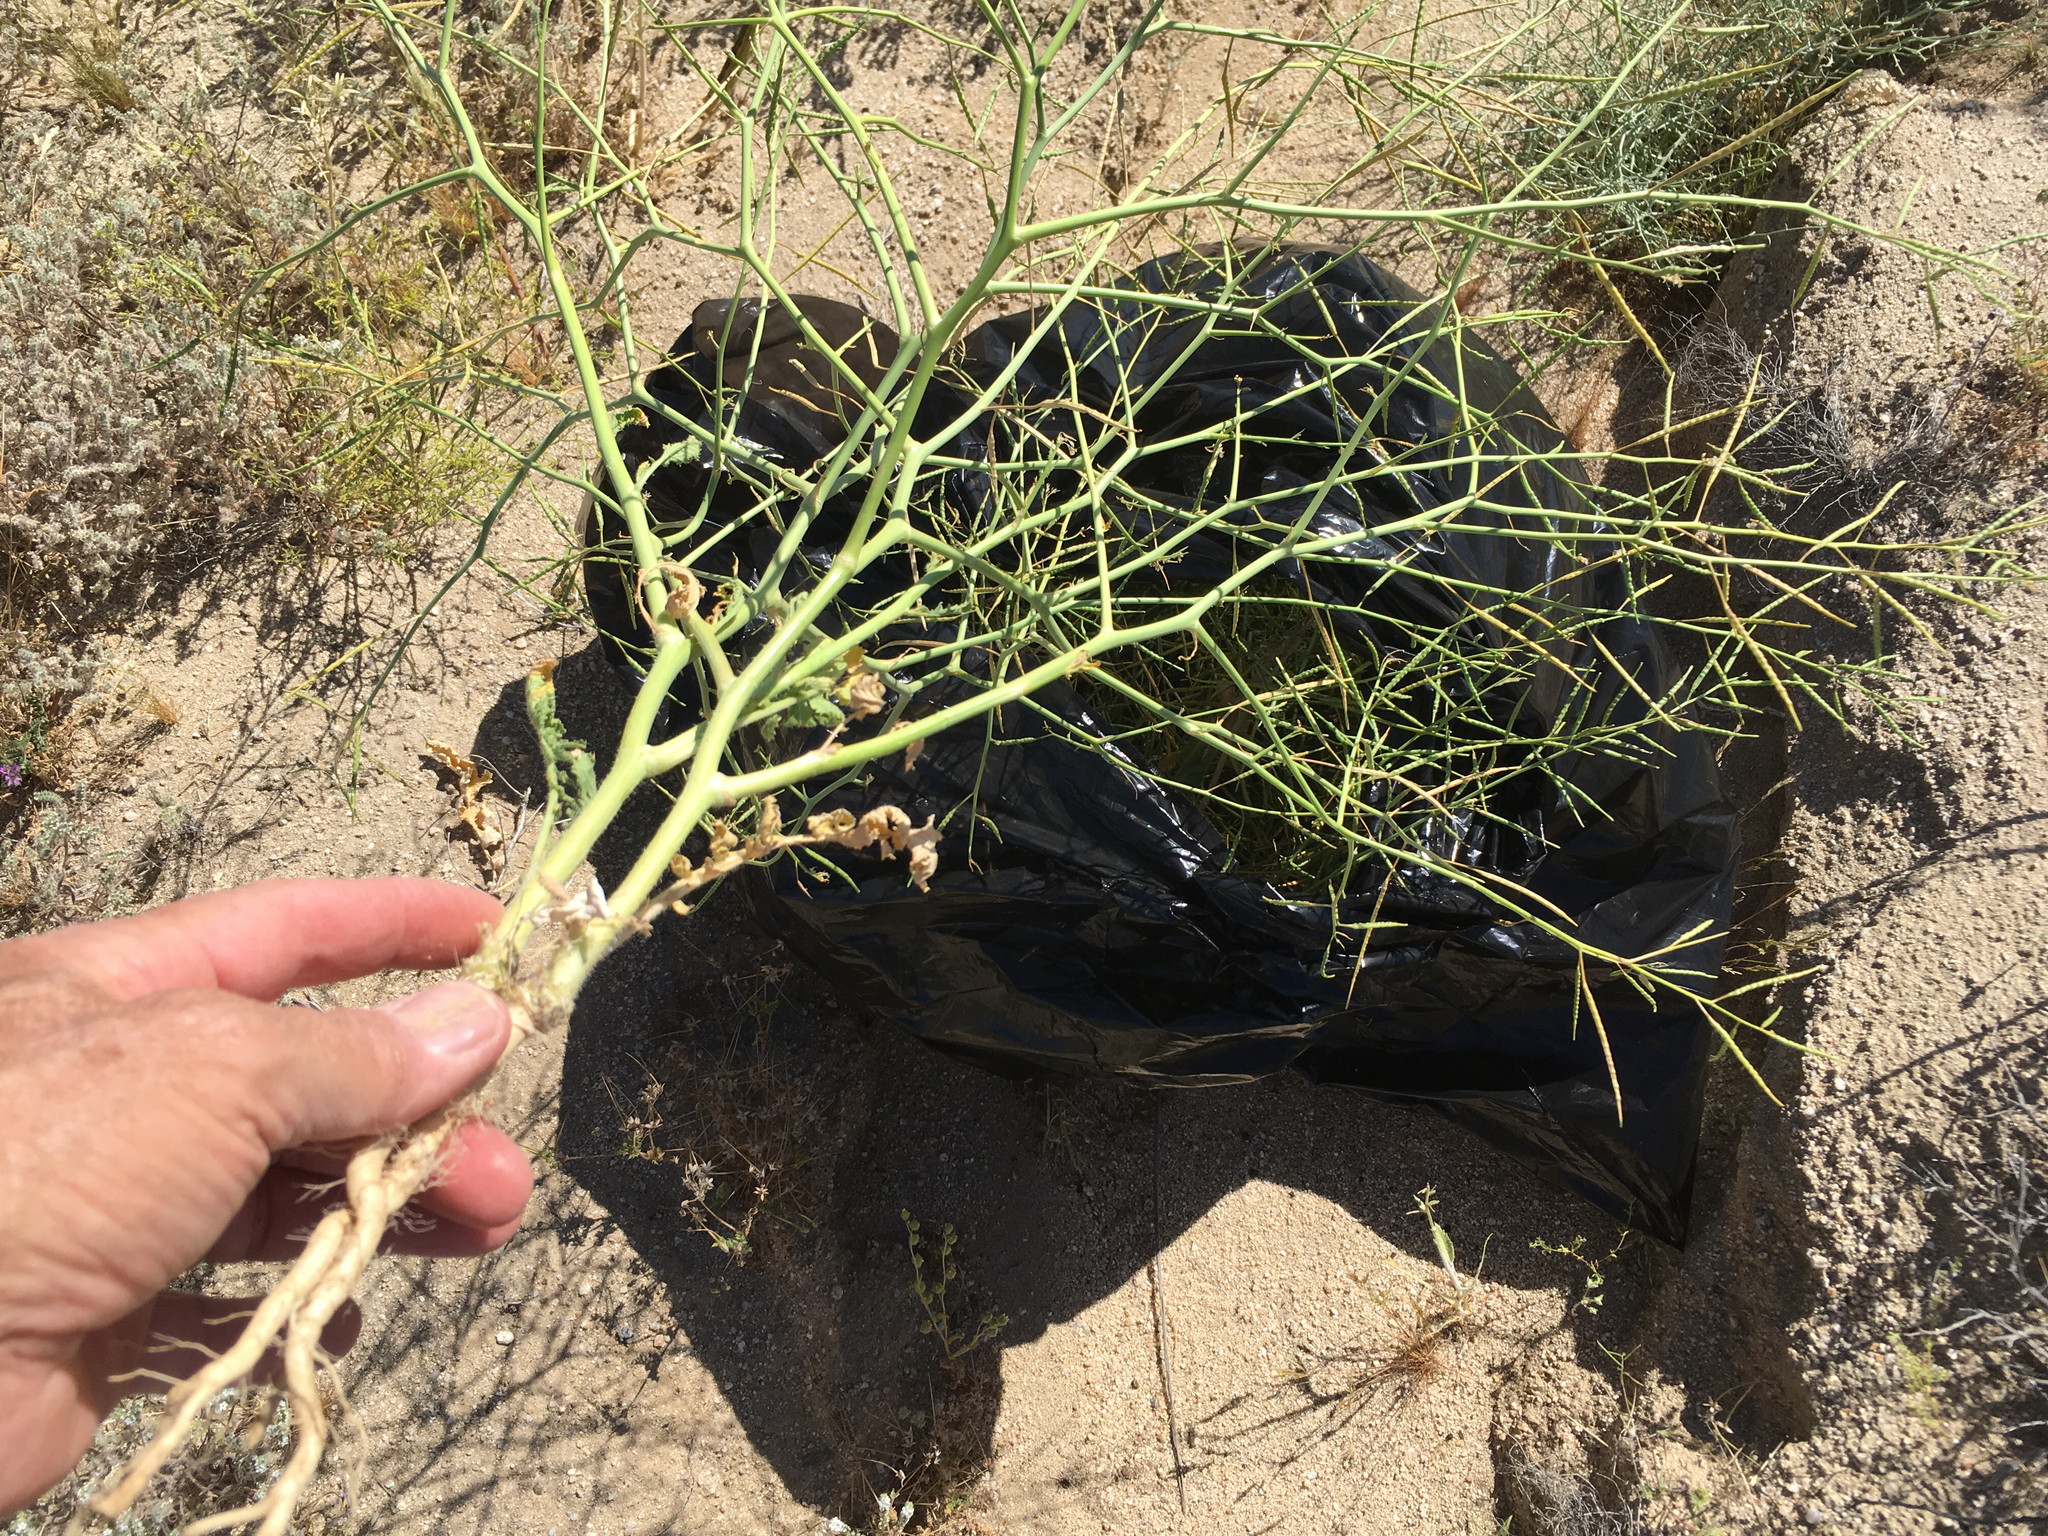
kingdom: Plantae
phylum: Tracheophyta
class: Magnoliopsida
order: Brassicales
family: Brassicaceae
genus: Brassica
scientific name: Brassica tournefortii
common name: Pale cabbage
